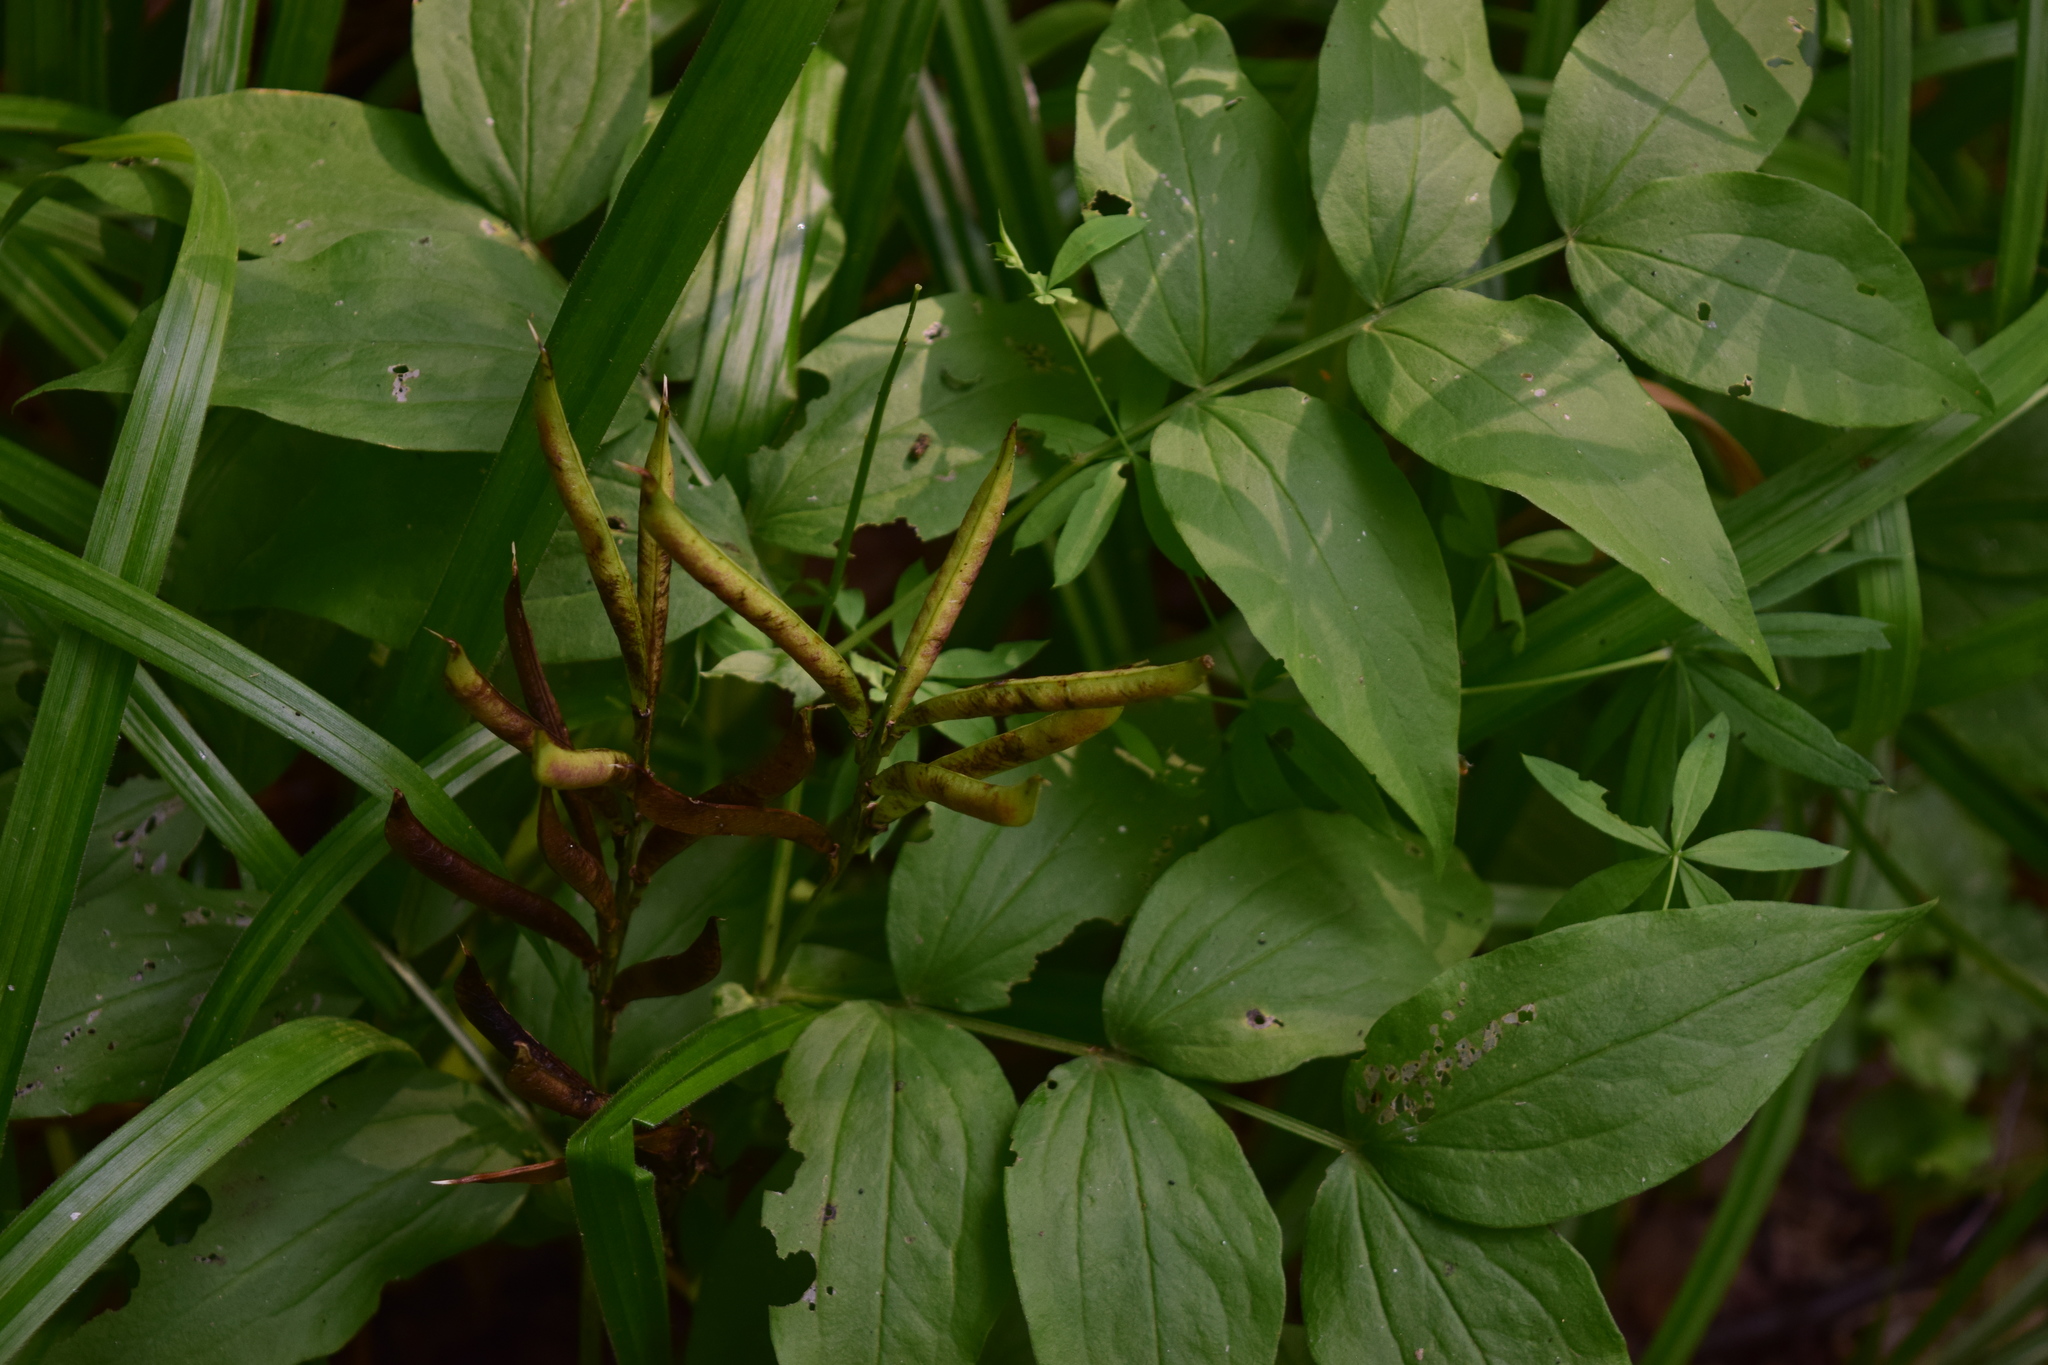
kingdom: Plantae
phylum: Tracheophyta
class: Magnoliopsida
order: Fabales
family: Fabaceae
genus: Lathyrus
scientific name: Lathyrus vernus
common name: Spring pea
